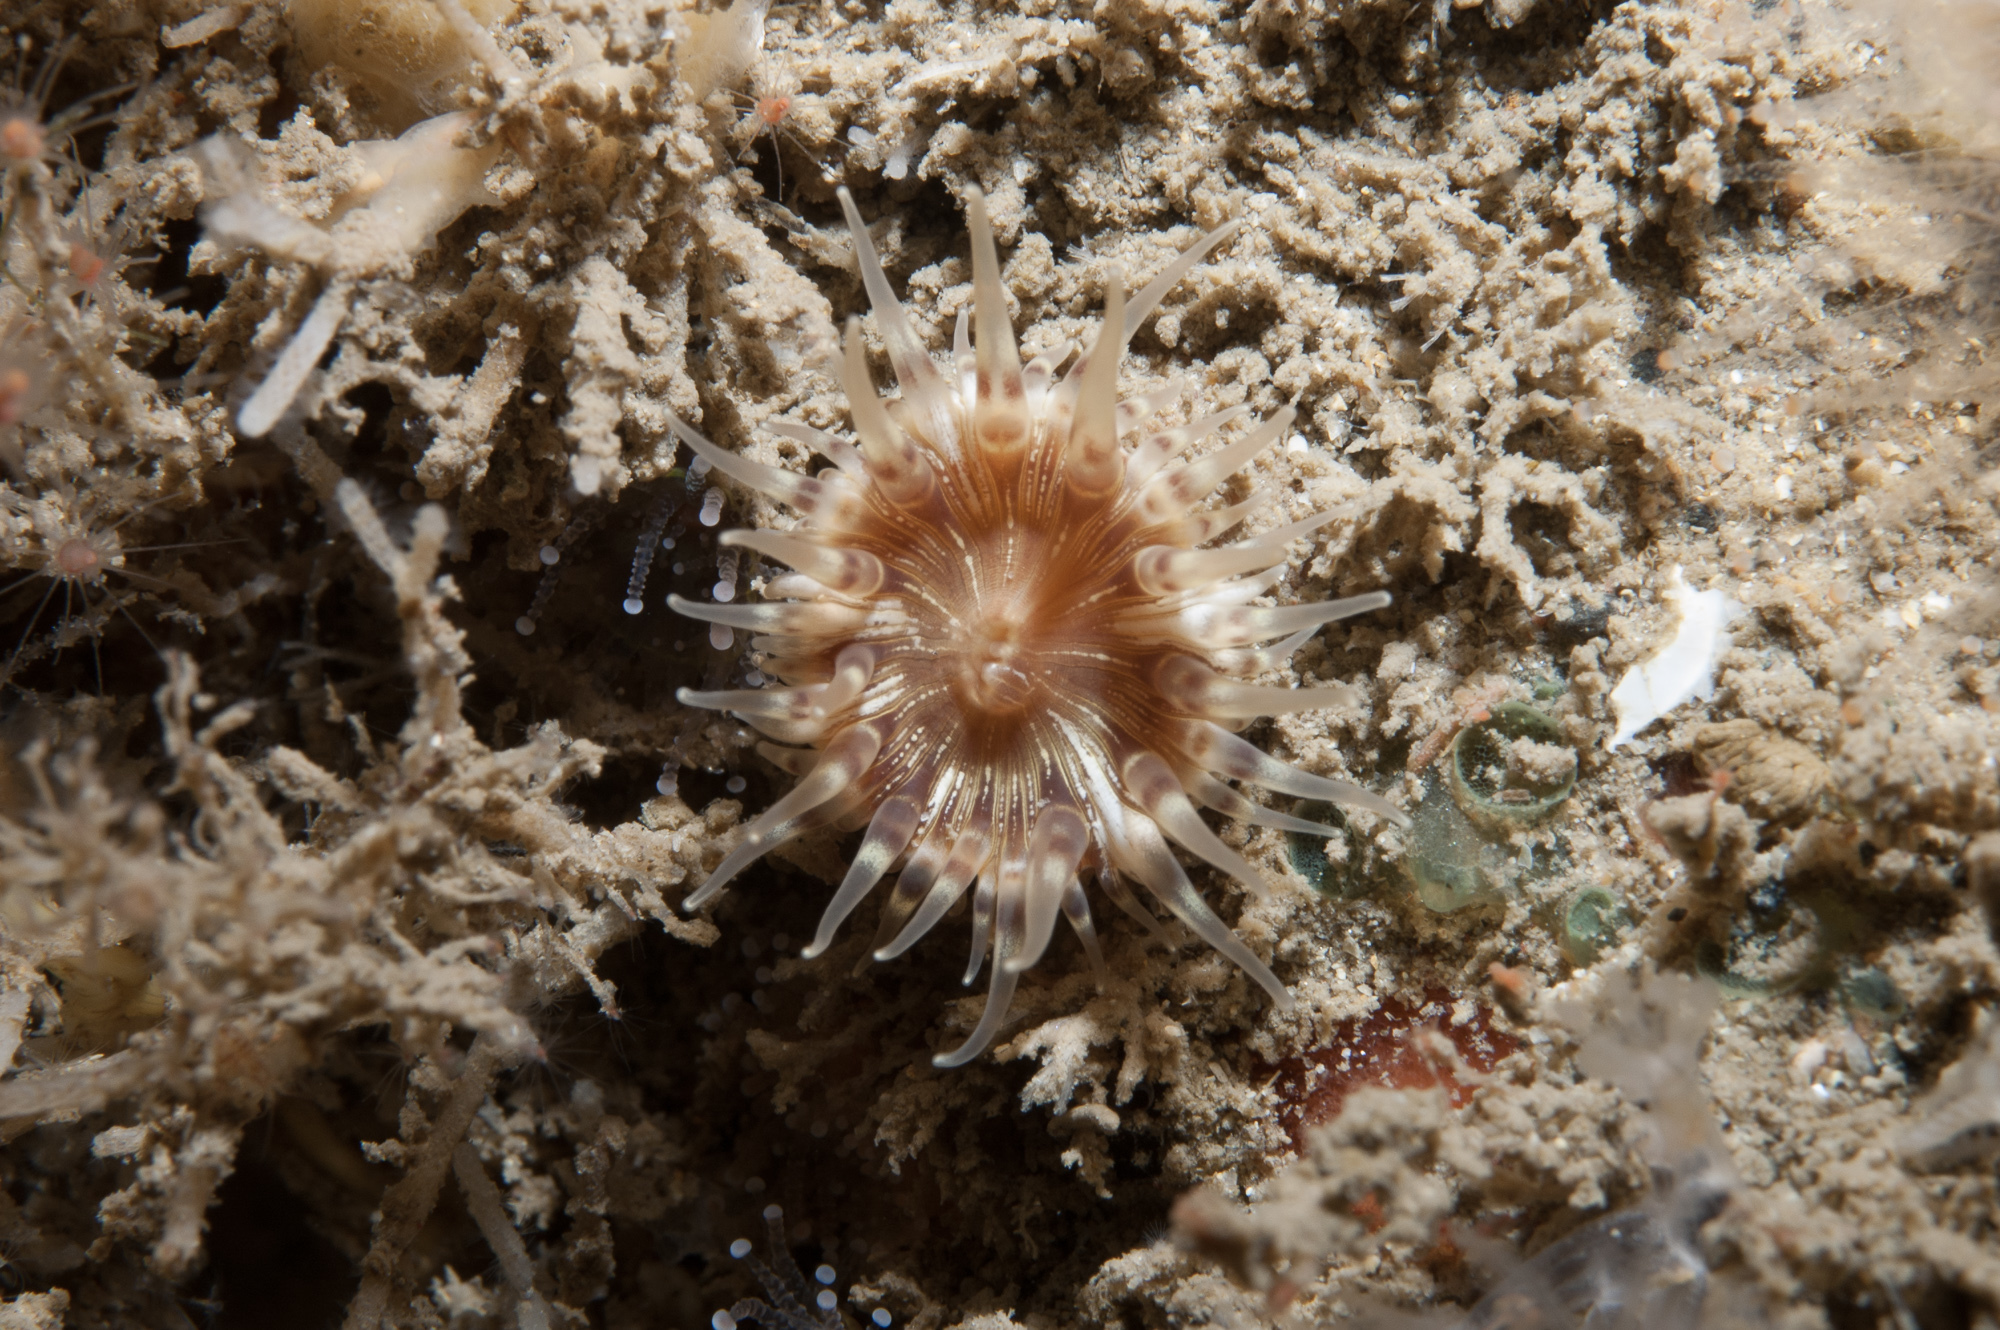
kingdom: Animalia
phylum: Cnidaria
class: Anthozoa
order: Actiniaria
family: Hormathiidae
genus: Hormathia
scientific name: Hormathia coronata
